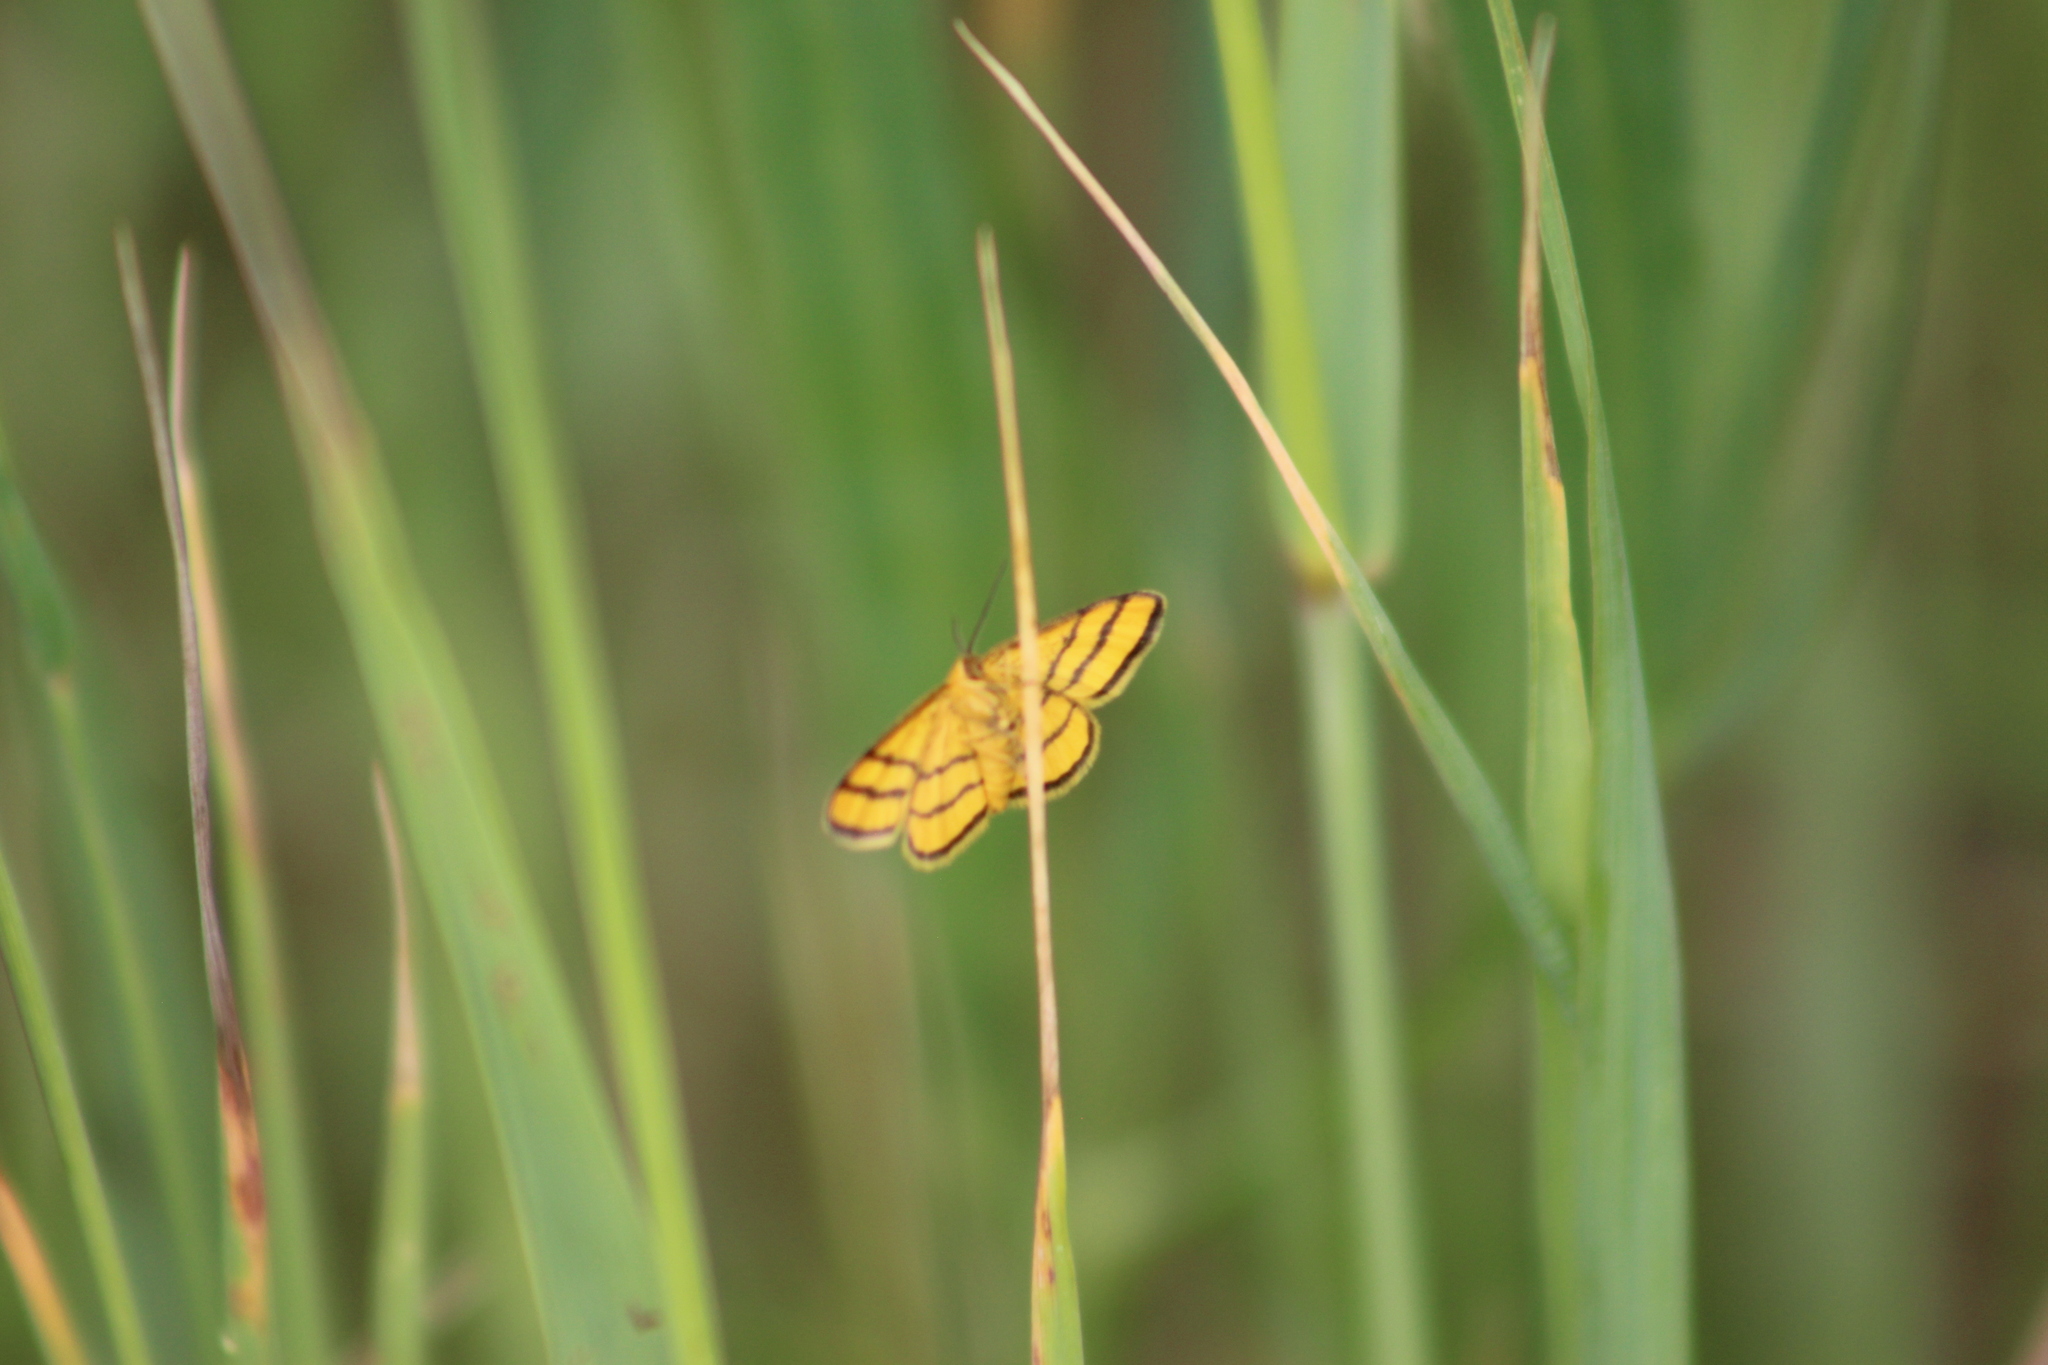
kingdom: Animalia
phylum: Arthropoda
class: Insecta
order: Lepidoptera
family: Geometridae
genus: Idaea
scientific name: Idaea aureolaria
